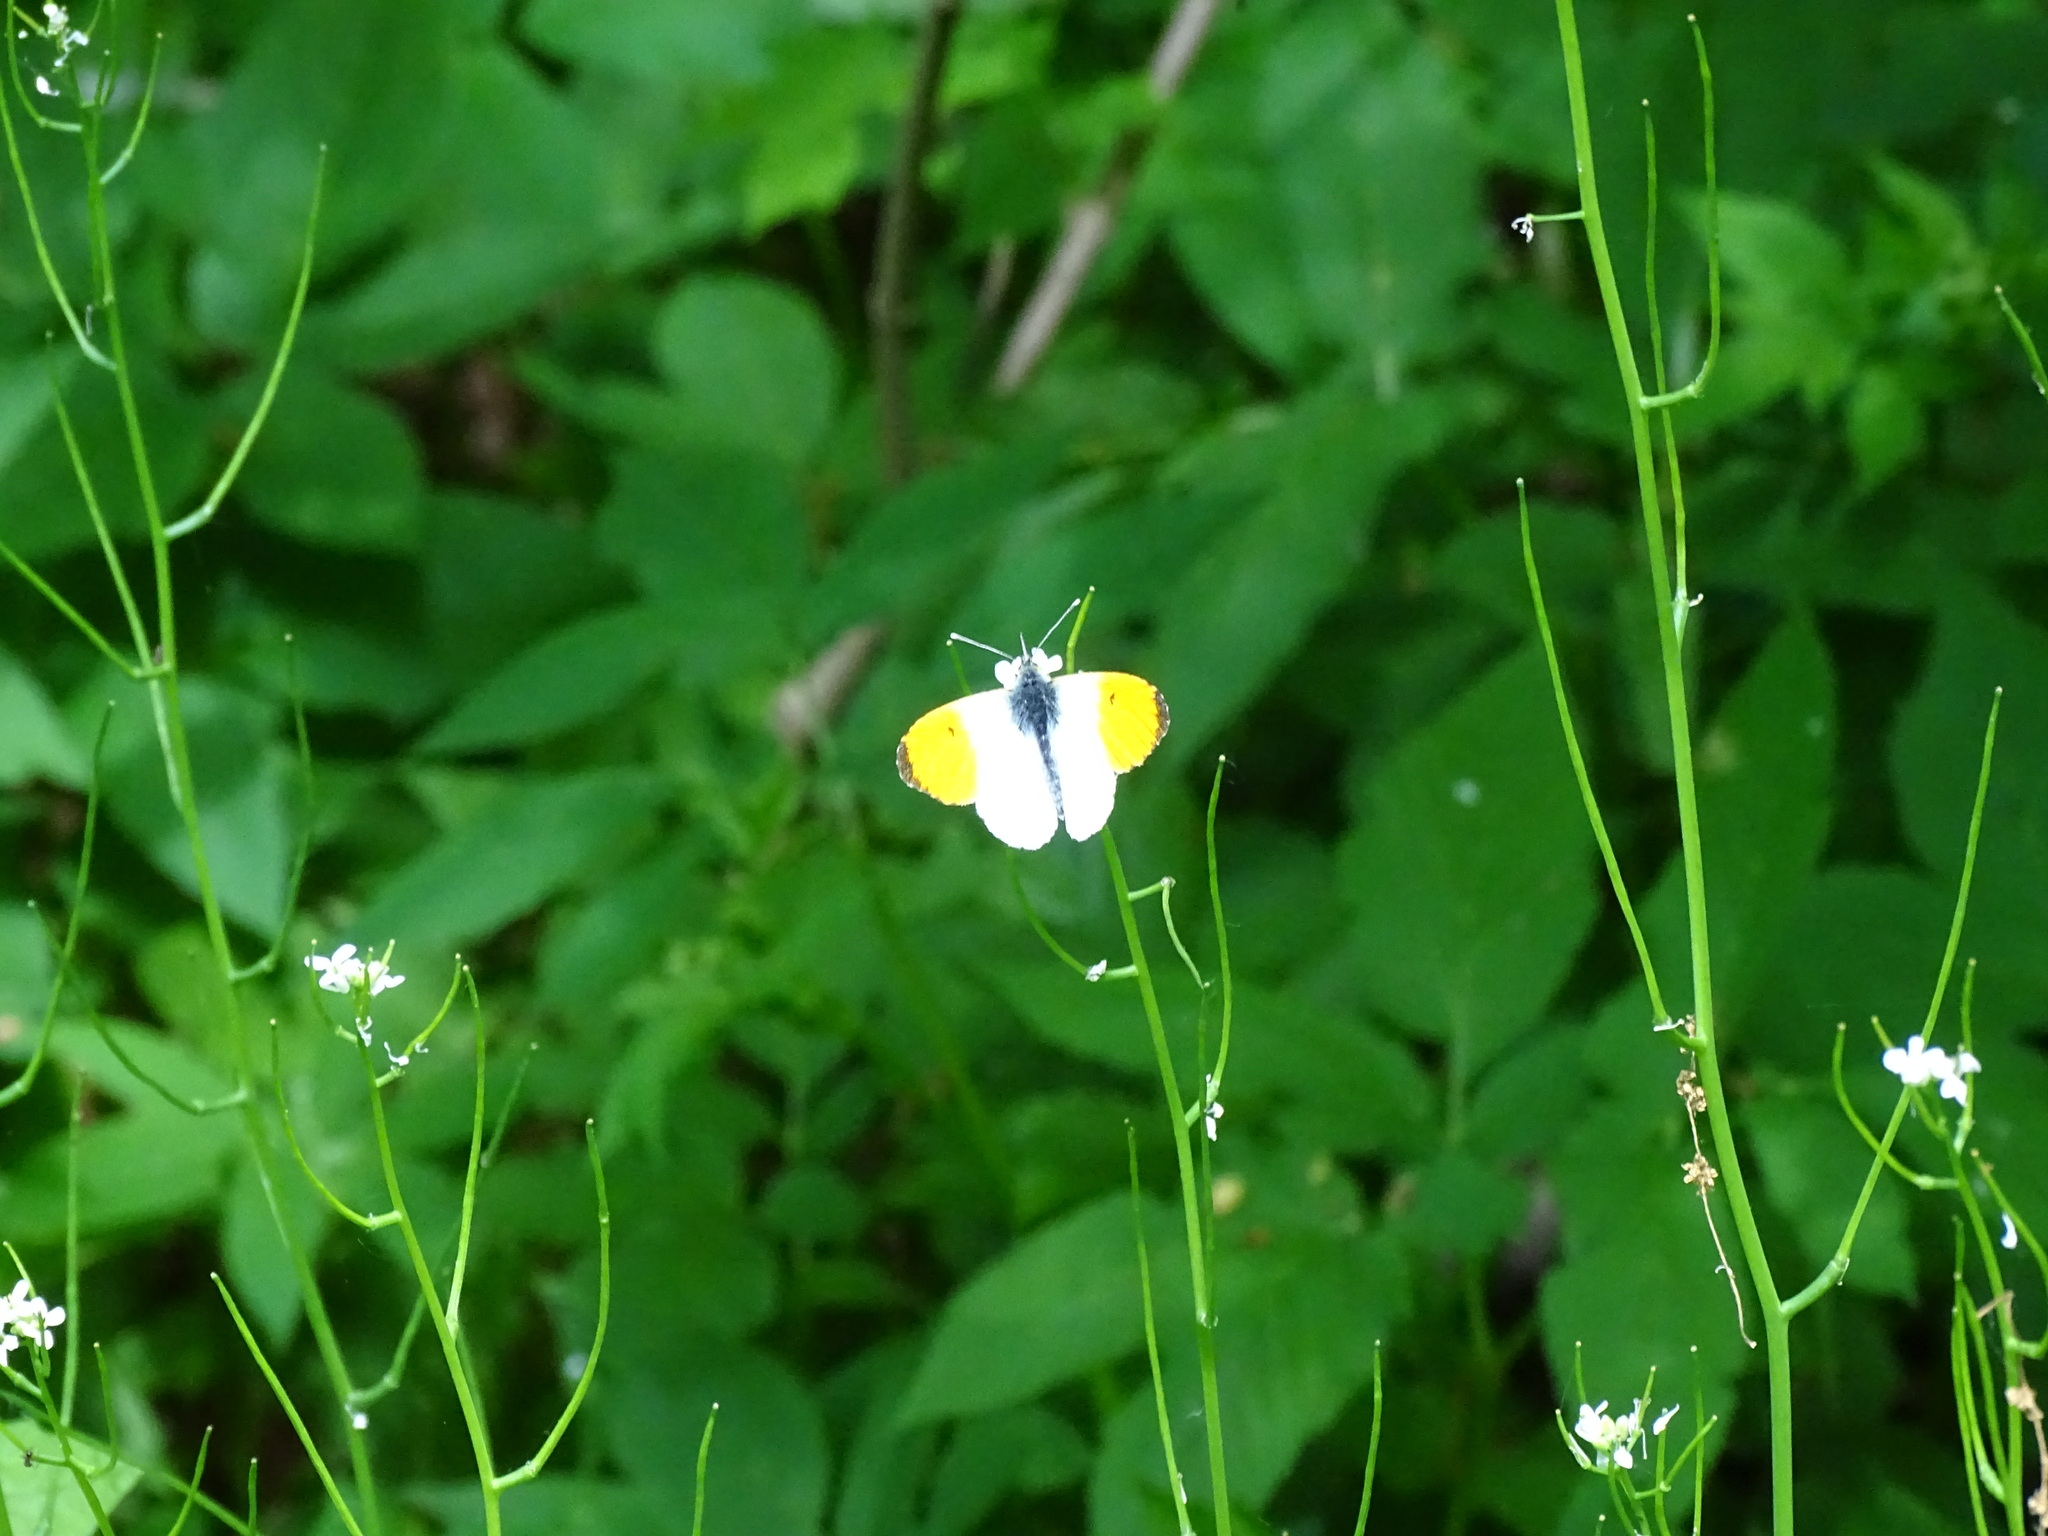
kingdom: Animalia
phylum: Arthropoda
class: Insecta
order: Lepidoptera
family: Pieridae
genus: Anthocharis
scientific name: Anthocharis cardamines
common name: Orange-tip
